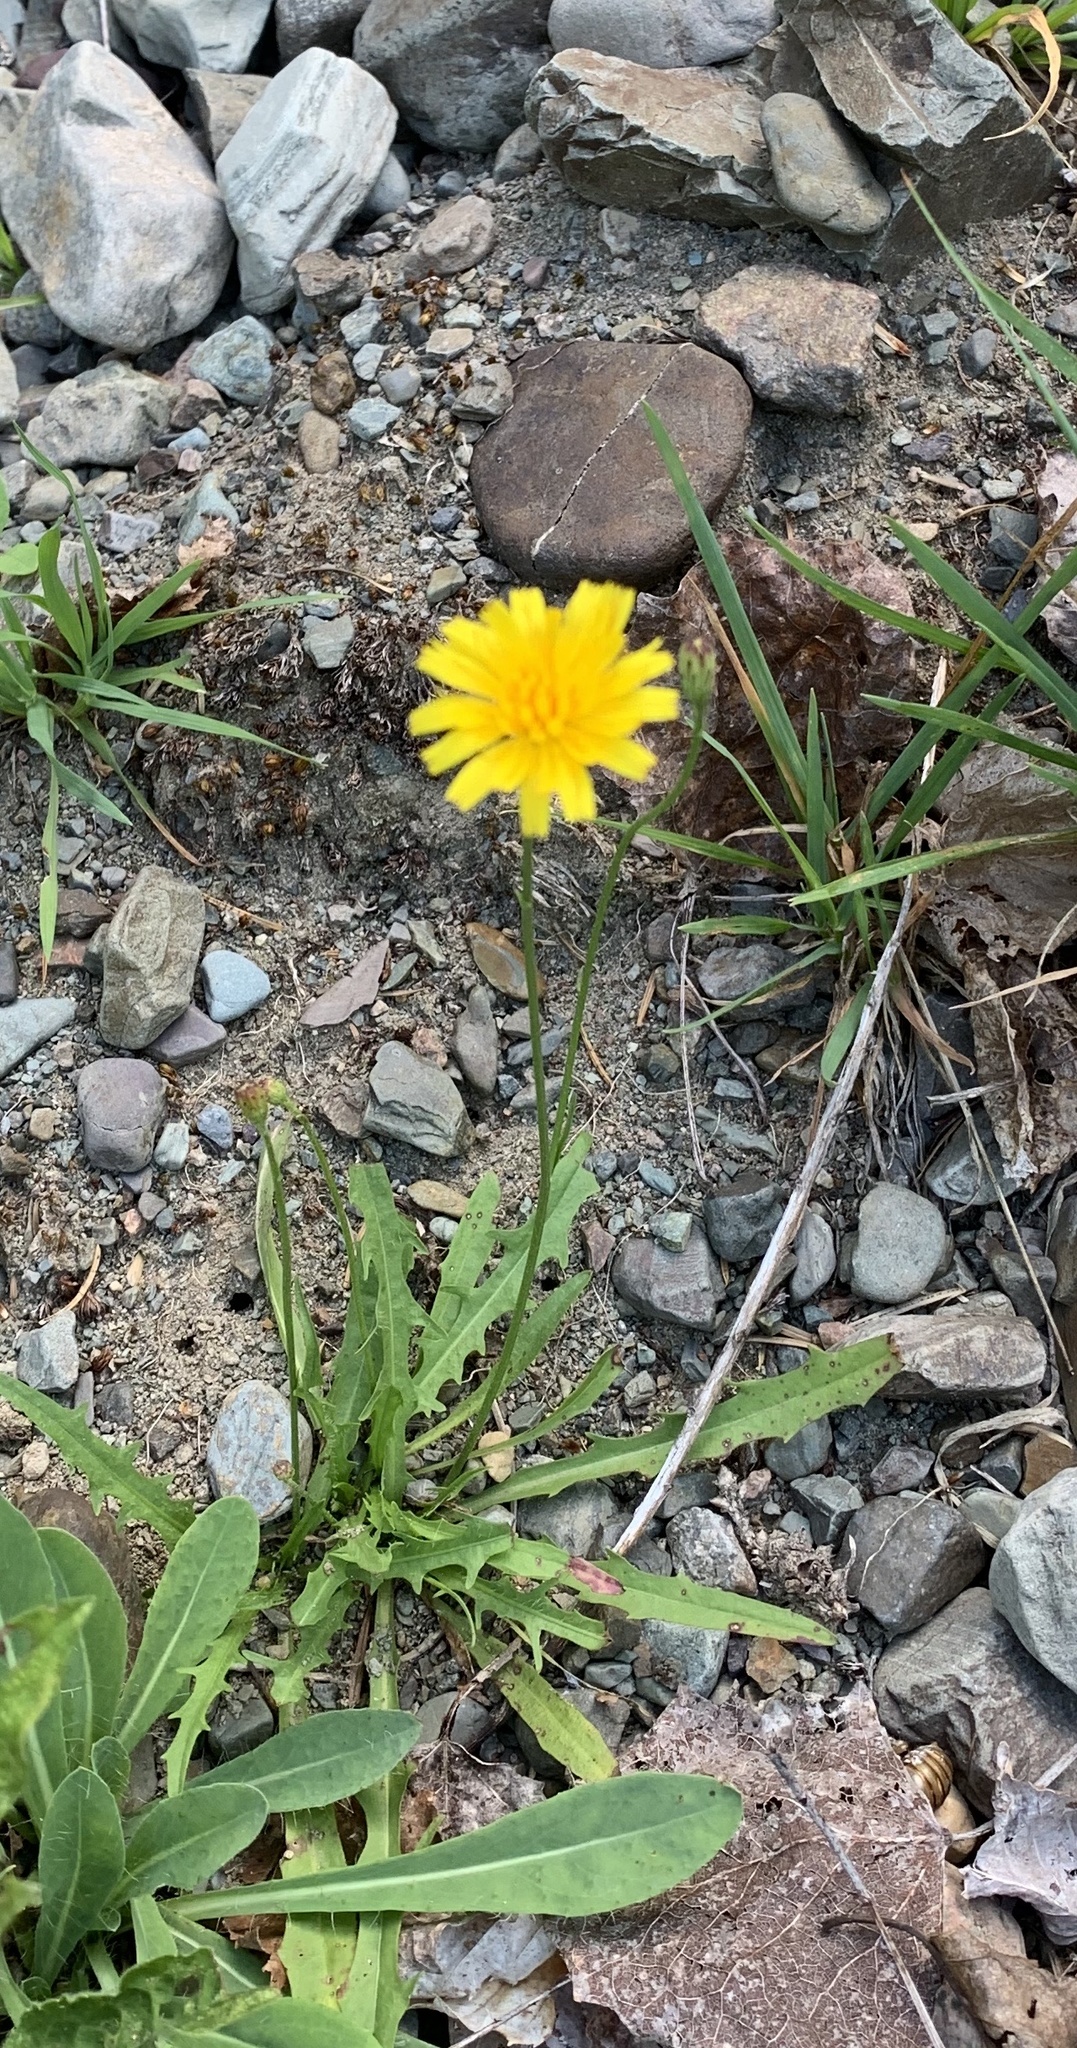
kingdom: Plantae
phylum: Tracheophyta
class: Magnoliopsida
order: Asterales
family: Asteraceae
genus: Scorzoneroides
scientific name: Scorzoneroides autumnalis
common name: Autumn hawkbit
